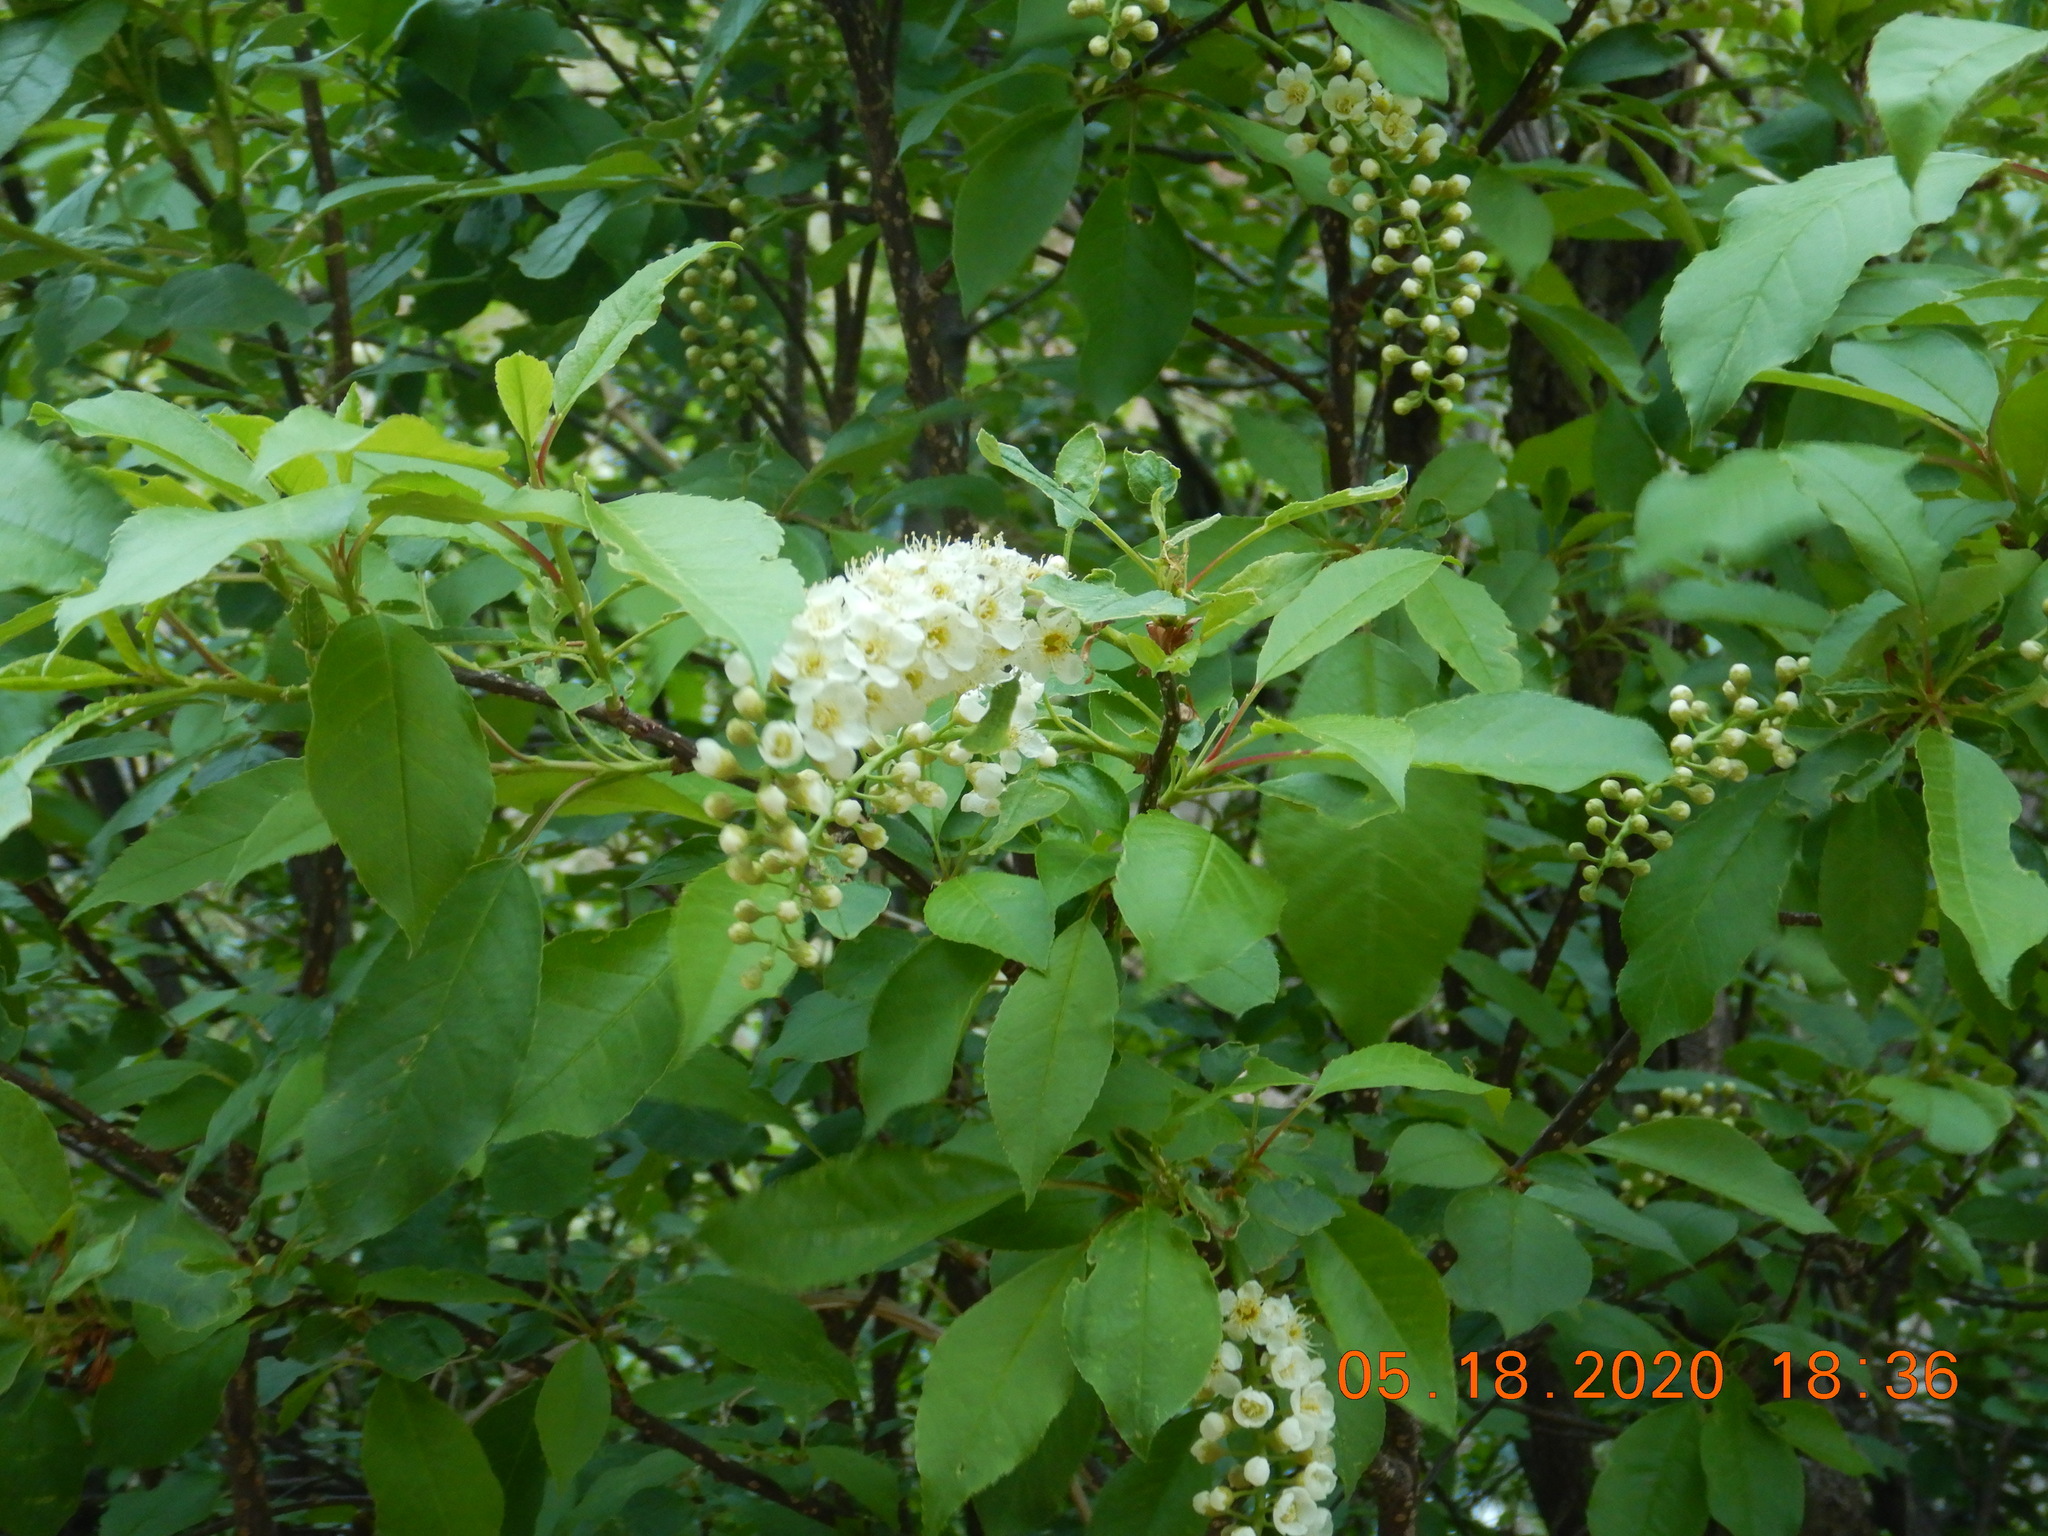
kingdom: Plantae
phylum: Tracheophyta
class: Magnoliopsida
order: Rosales
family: Rosaceae
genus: Prunus
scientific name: Prunus virginiana
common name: Chokecherry
